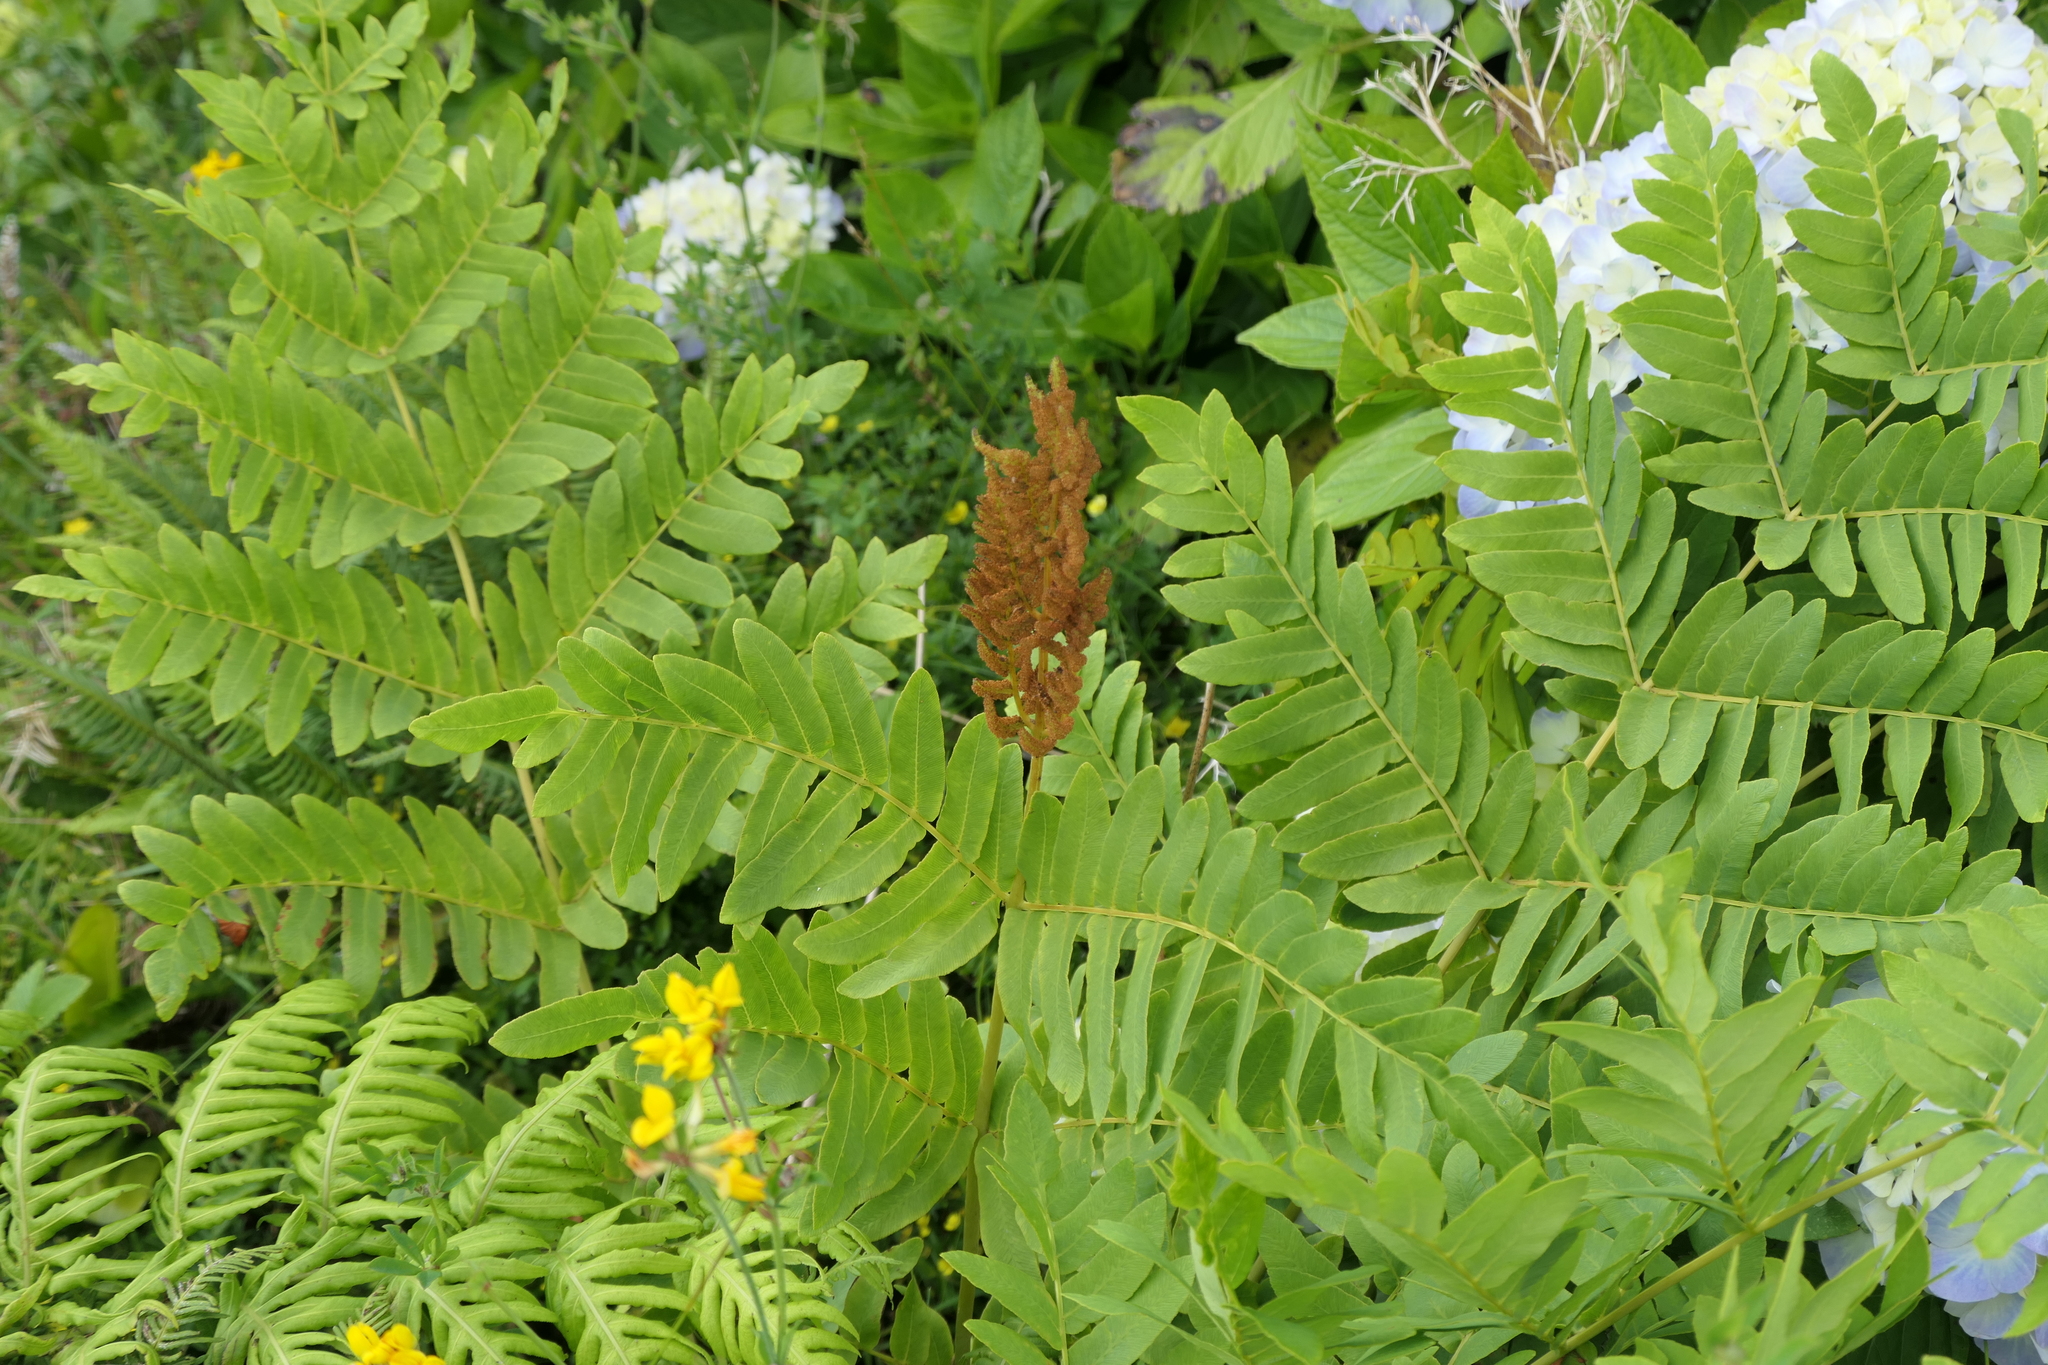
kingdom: Plantae
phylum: Tracheophyta
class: Polypodiopsida
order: Osmundales
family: Osmundaceae
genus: Osmunda
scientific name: Osmunda regalis
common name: Royal fern
